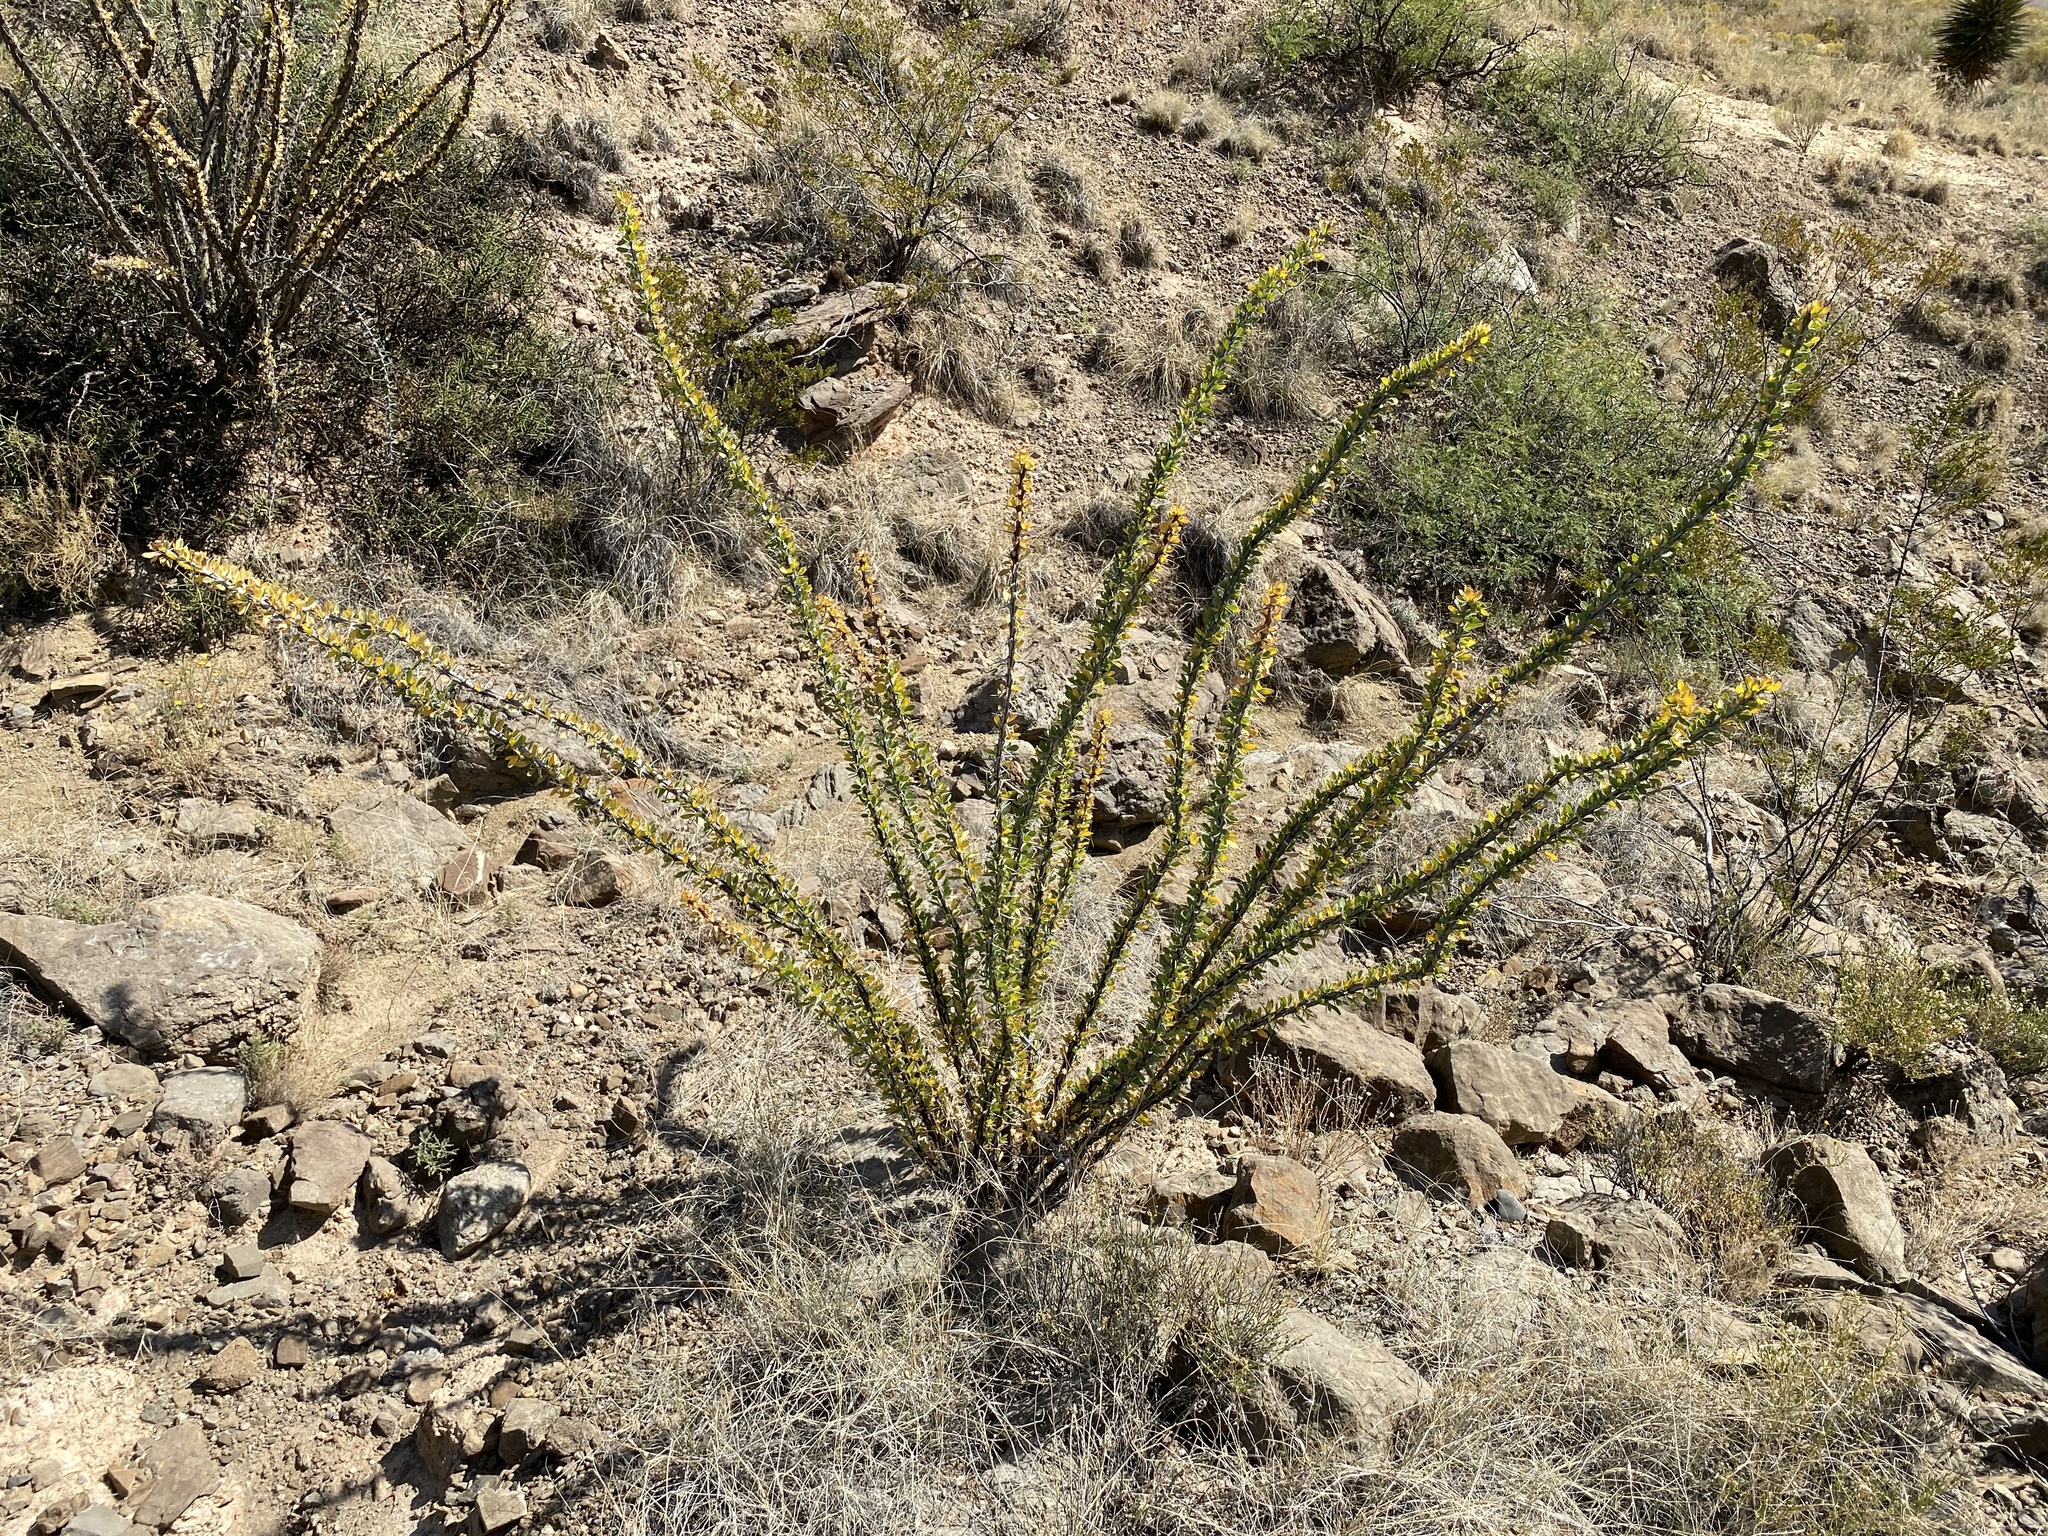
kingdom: Plantae
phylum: Tracheophyta
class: Magnoliopsida
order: Ericales
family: Fouquieriaceae
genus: Fouquieria
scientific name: Fouquieria splendens
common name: Vine-cactus
